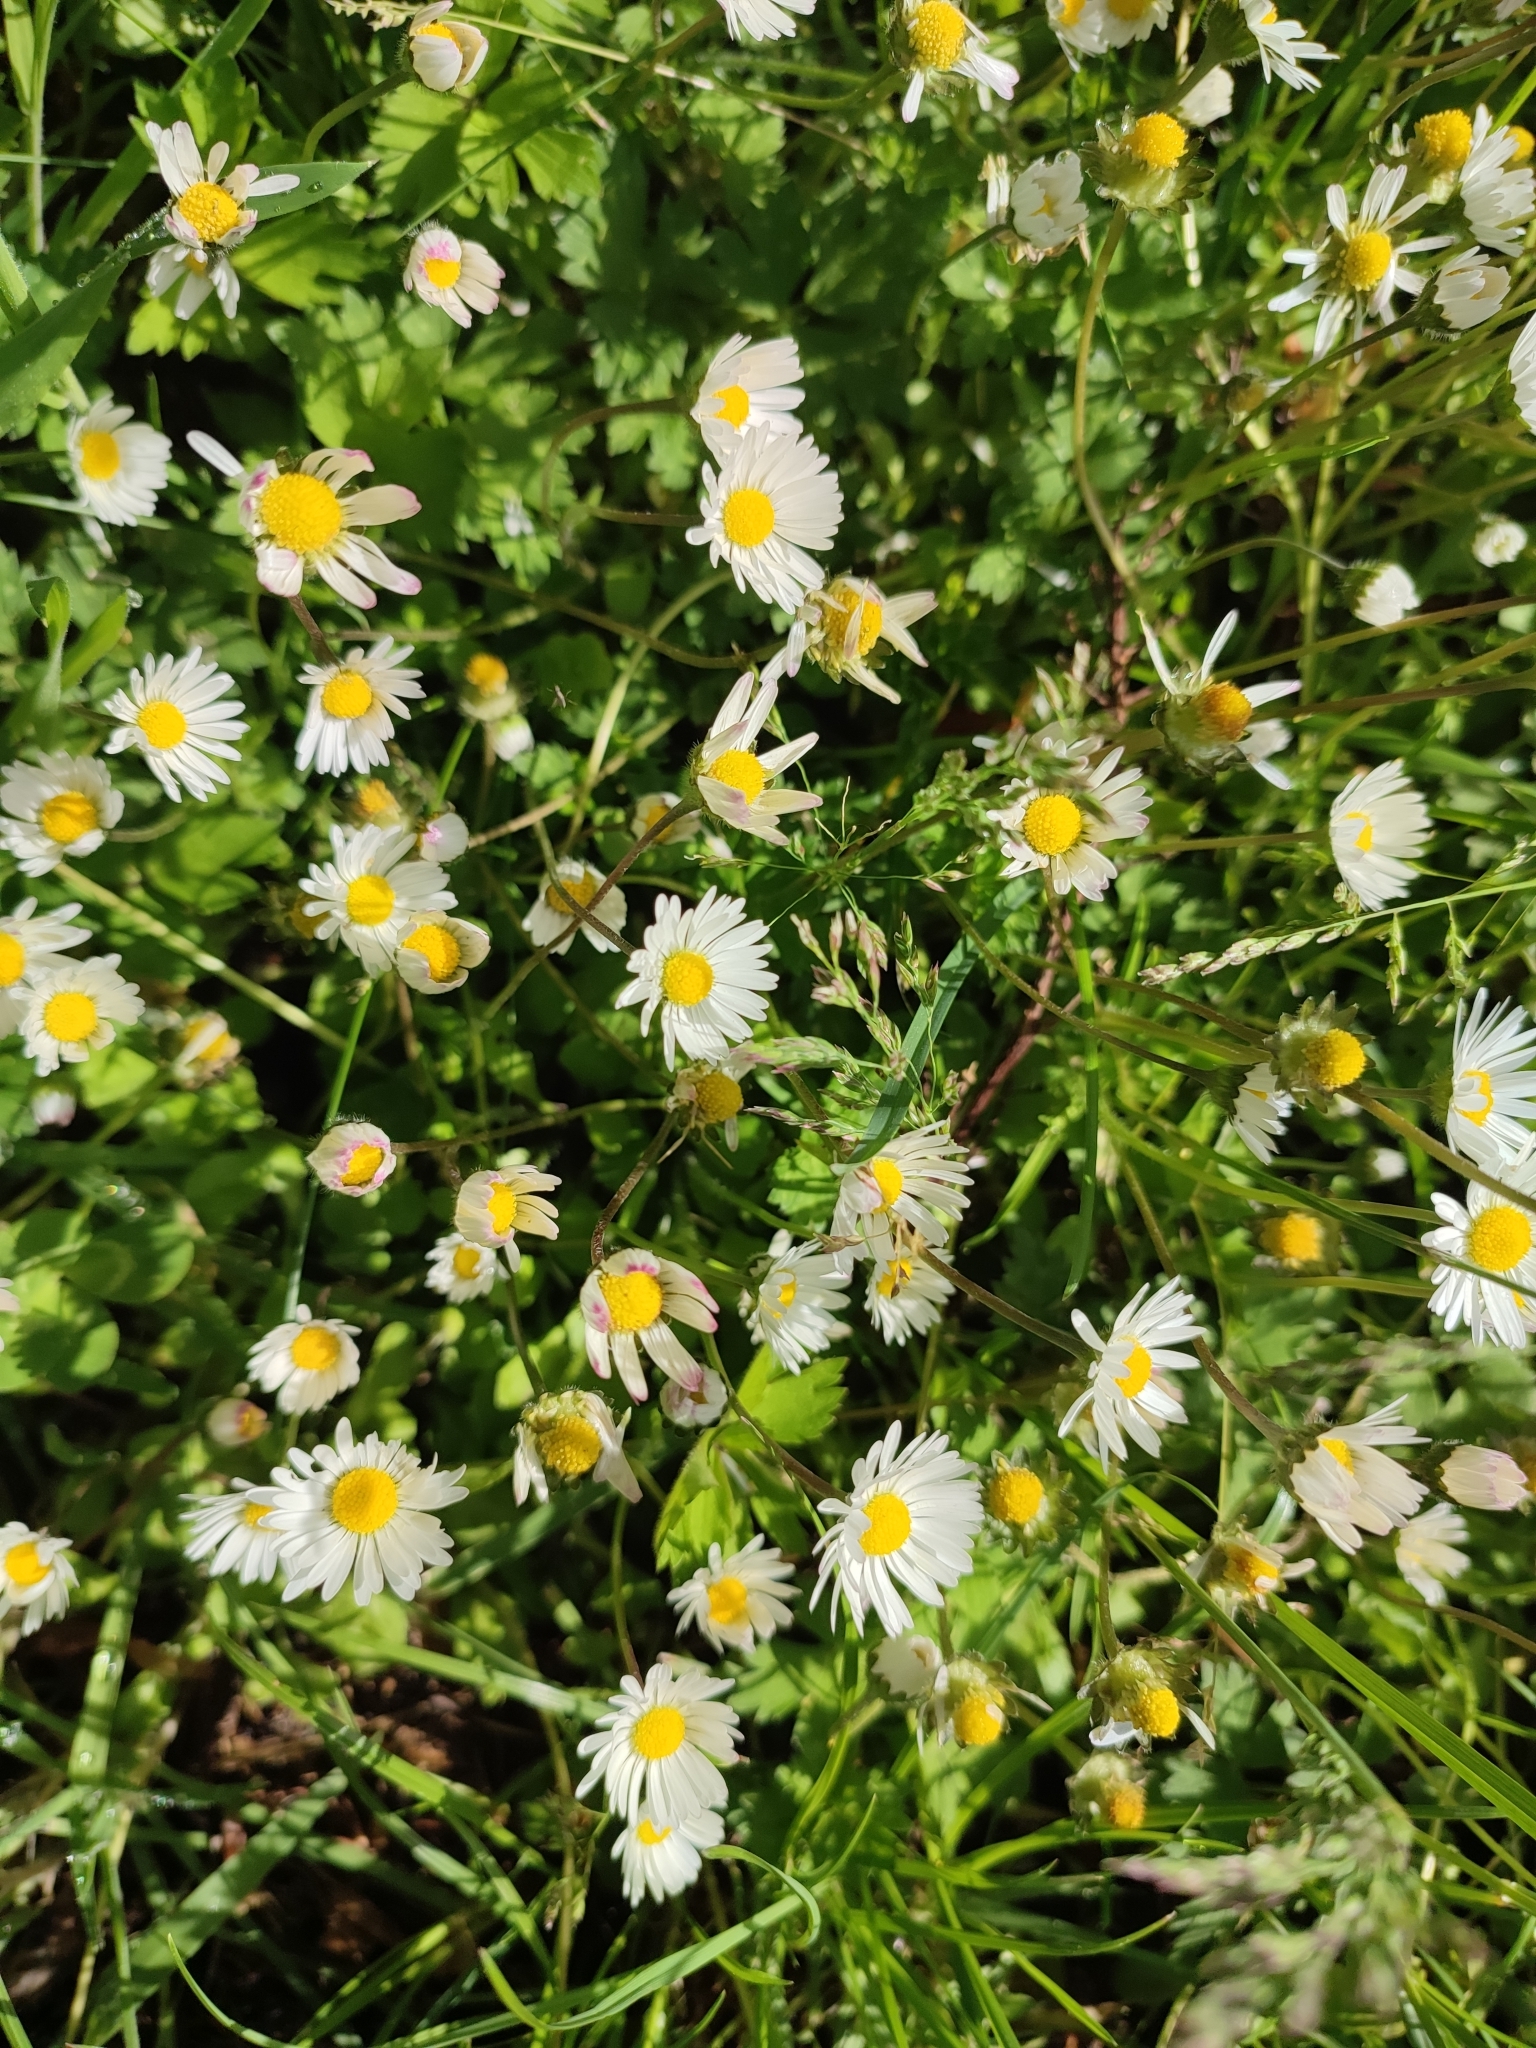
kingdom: Plantae
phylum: Tracheophyta
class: Magnoliopsida
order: Asterales
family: Asteraceae
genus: Bellis
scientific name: Bellis perennis
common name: Lawndaisy
